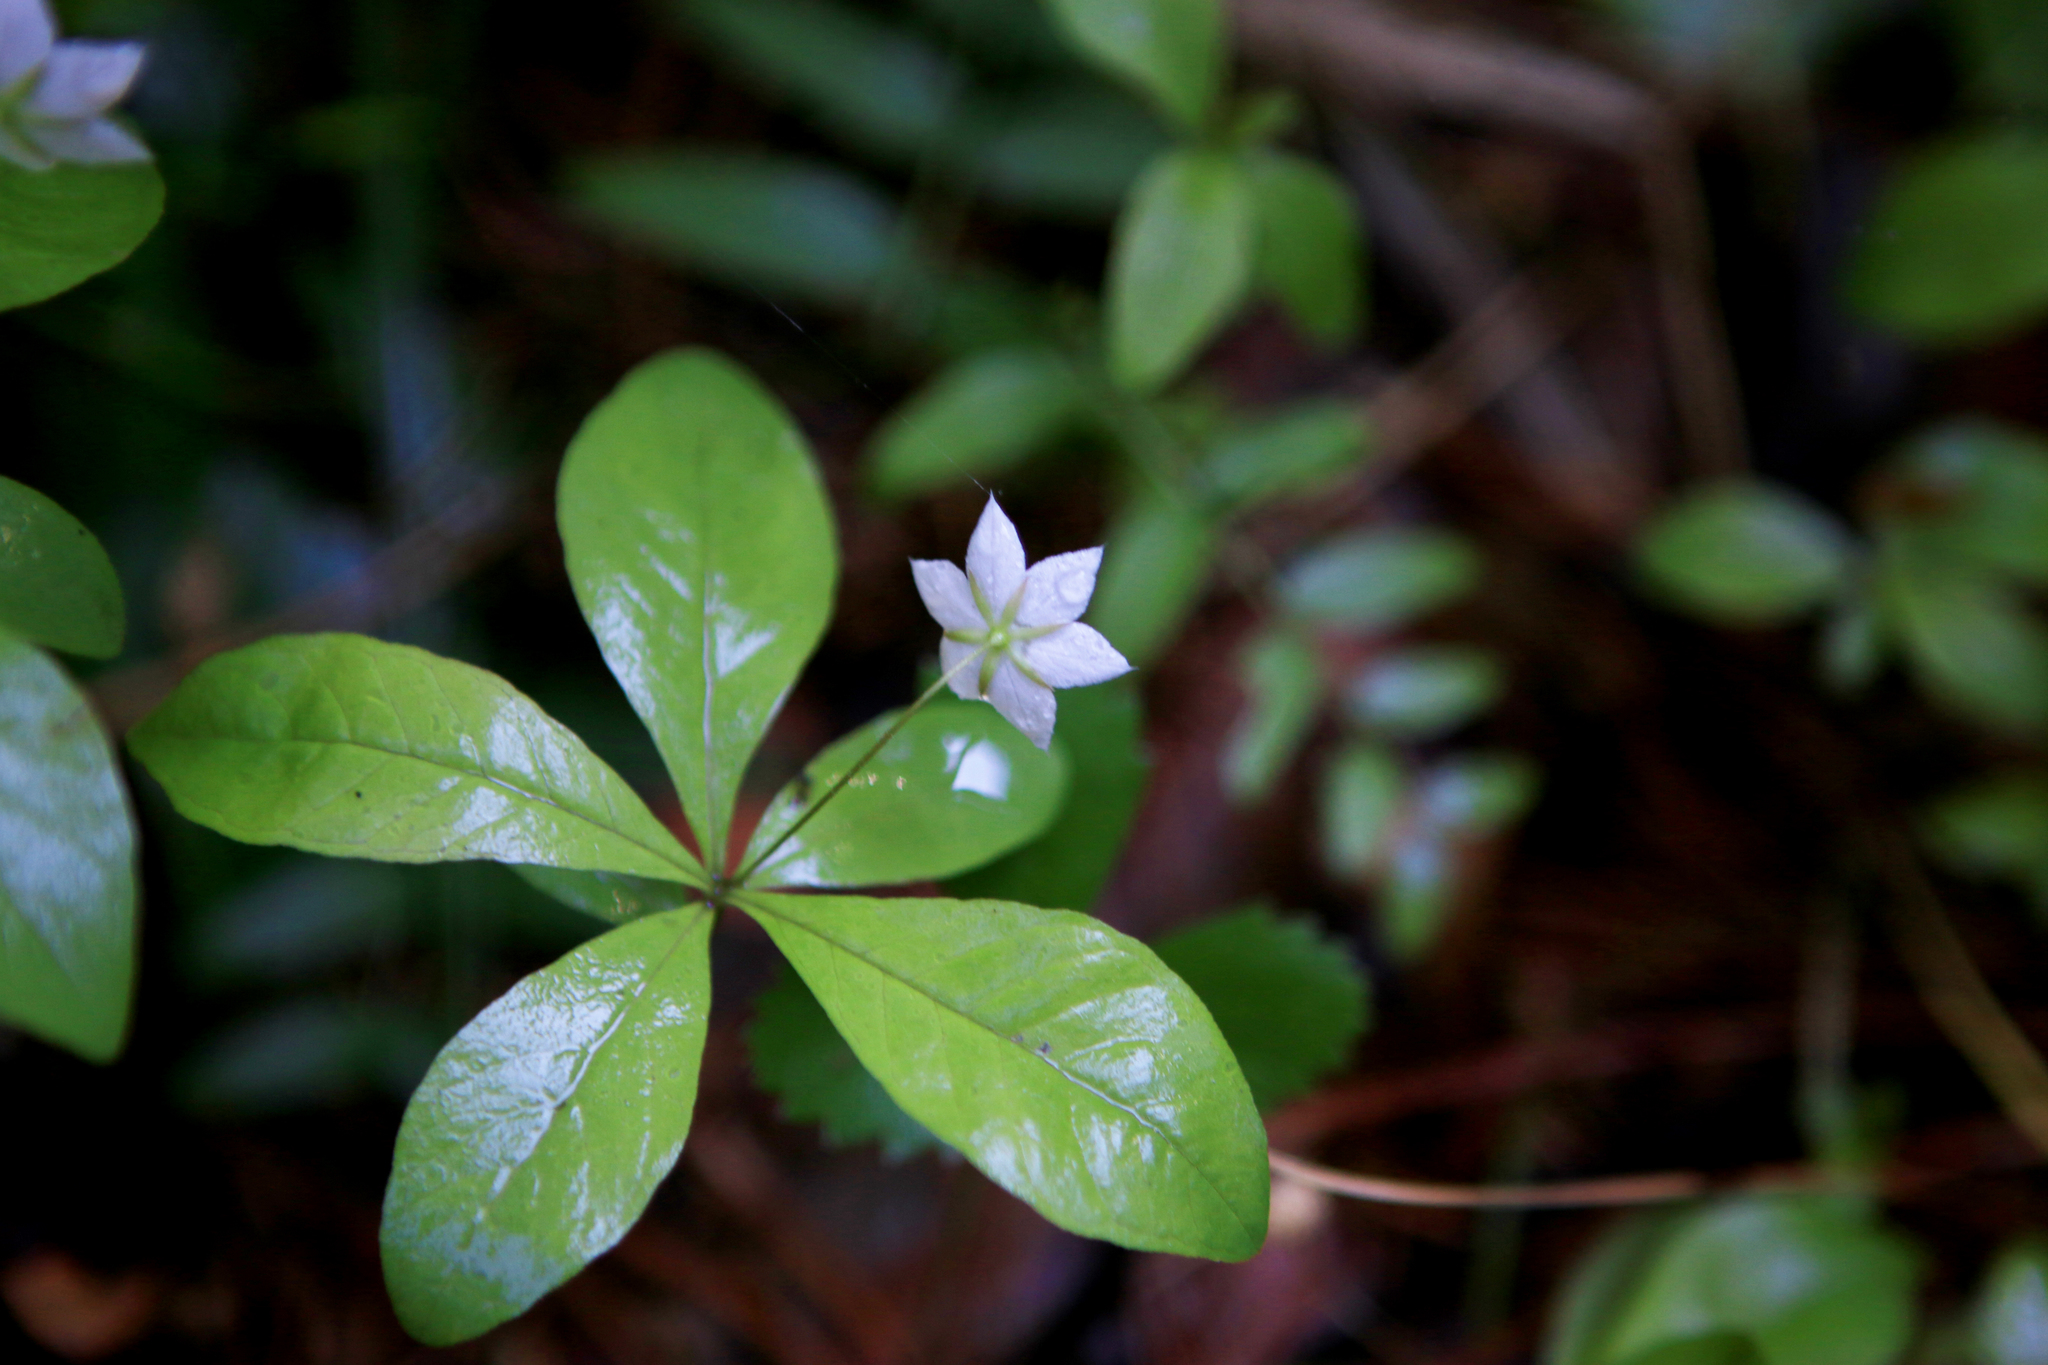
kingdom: Plantae
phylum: Tracheophyta
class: Magnoliopsida
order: Ericales
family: Primulaceae
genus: Lysimachia
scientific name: Lysimachia europaea
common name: Arctic starflower
